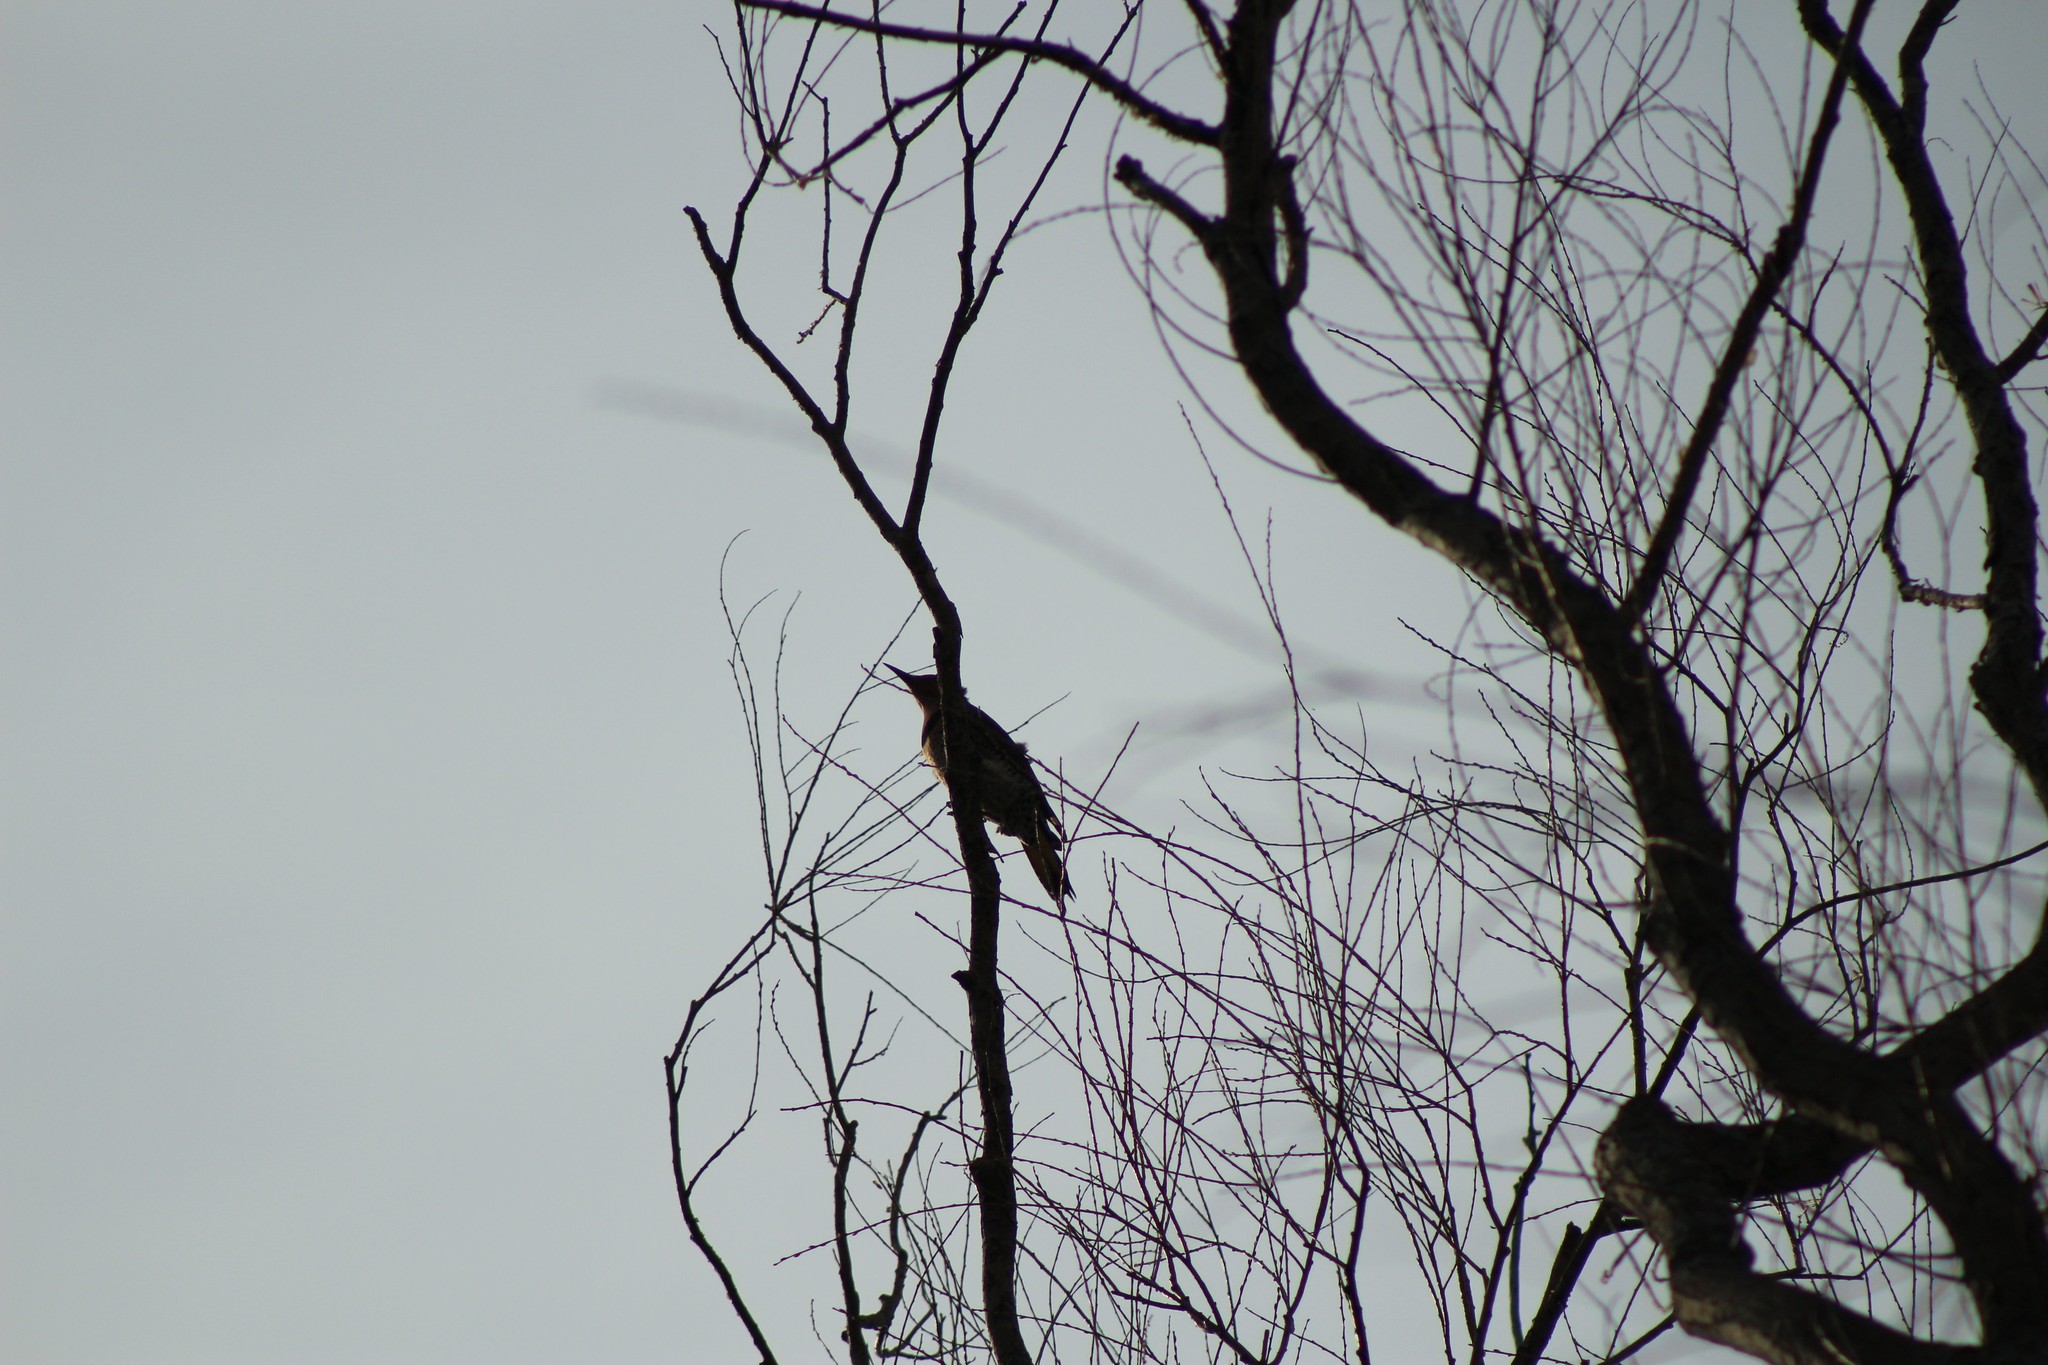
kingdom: Animalia
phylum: Chordata
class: Aves
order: Piciformes
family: Picidae
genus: Colaptes
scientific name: Colaptes auratus
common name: Northern flicker
